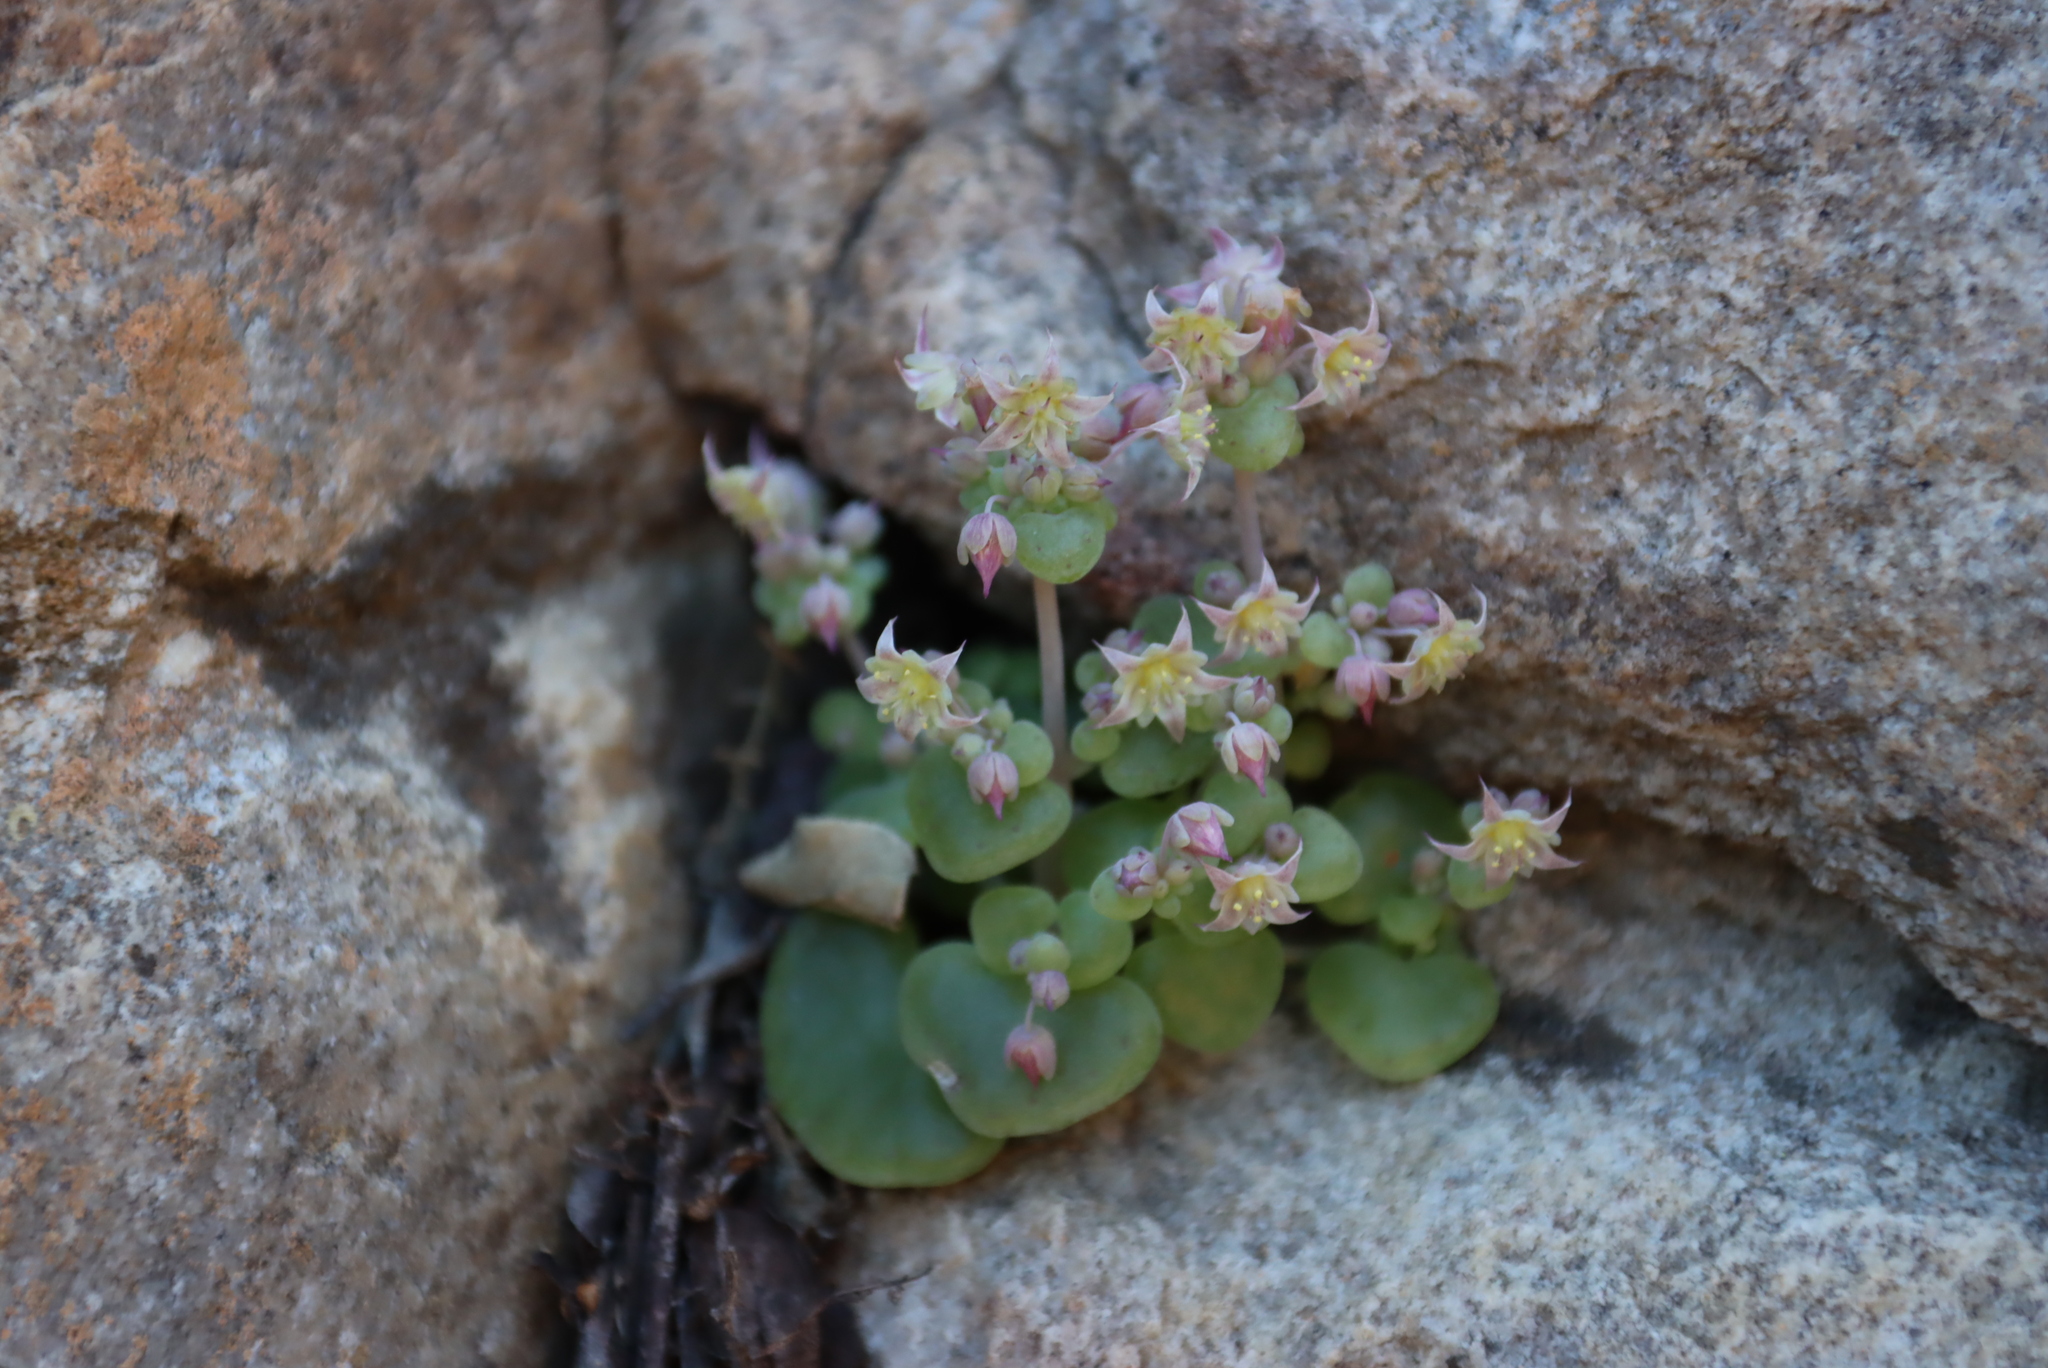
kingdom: Plantae
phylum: Tracheophyta
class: Magnoliopsida
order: Saxifragales
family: Crassulaceae
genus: Crassula
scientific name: Crassula nemorosa
